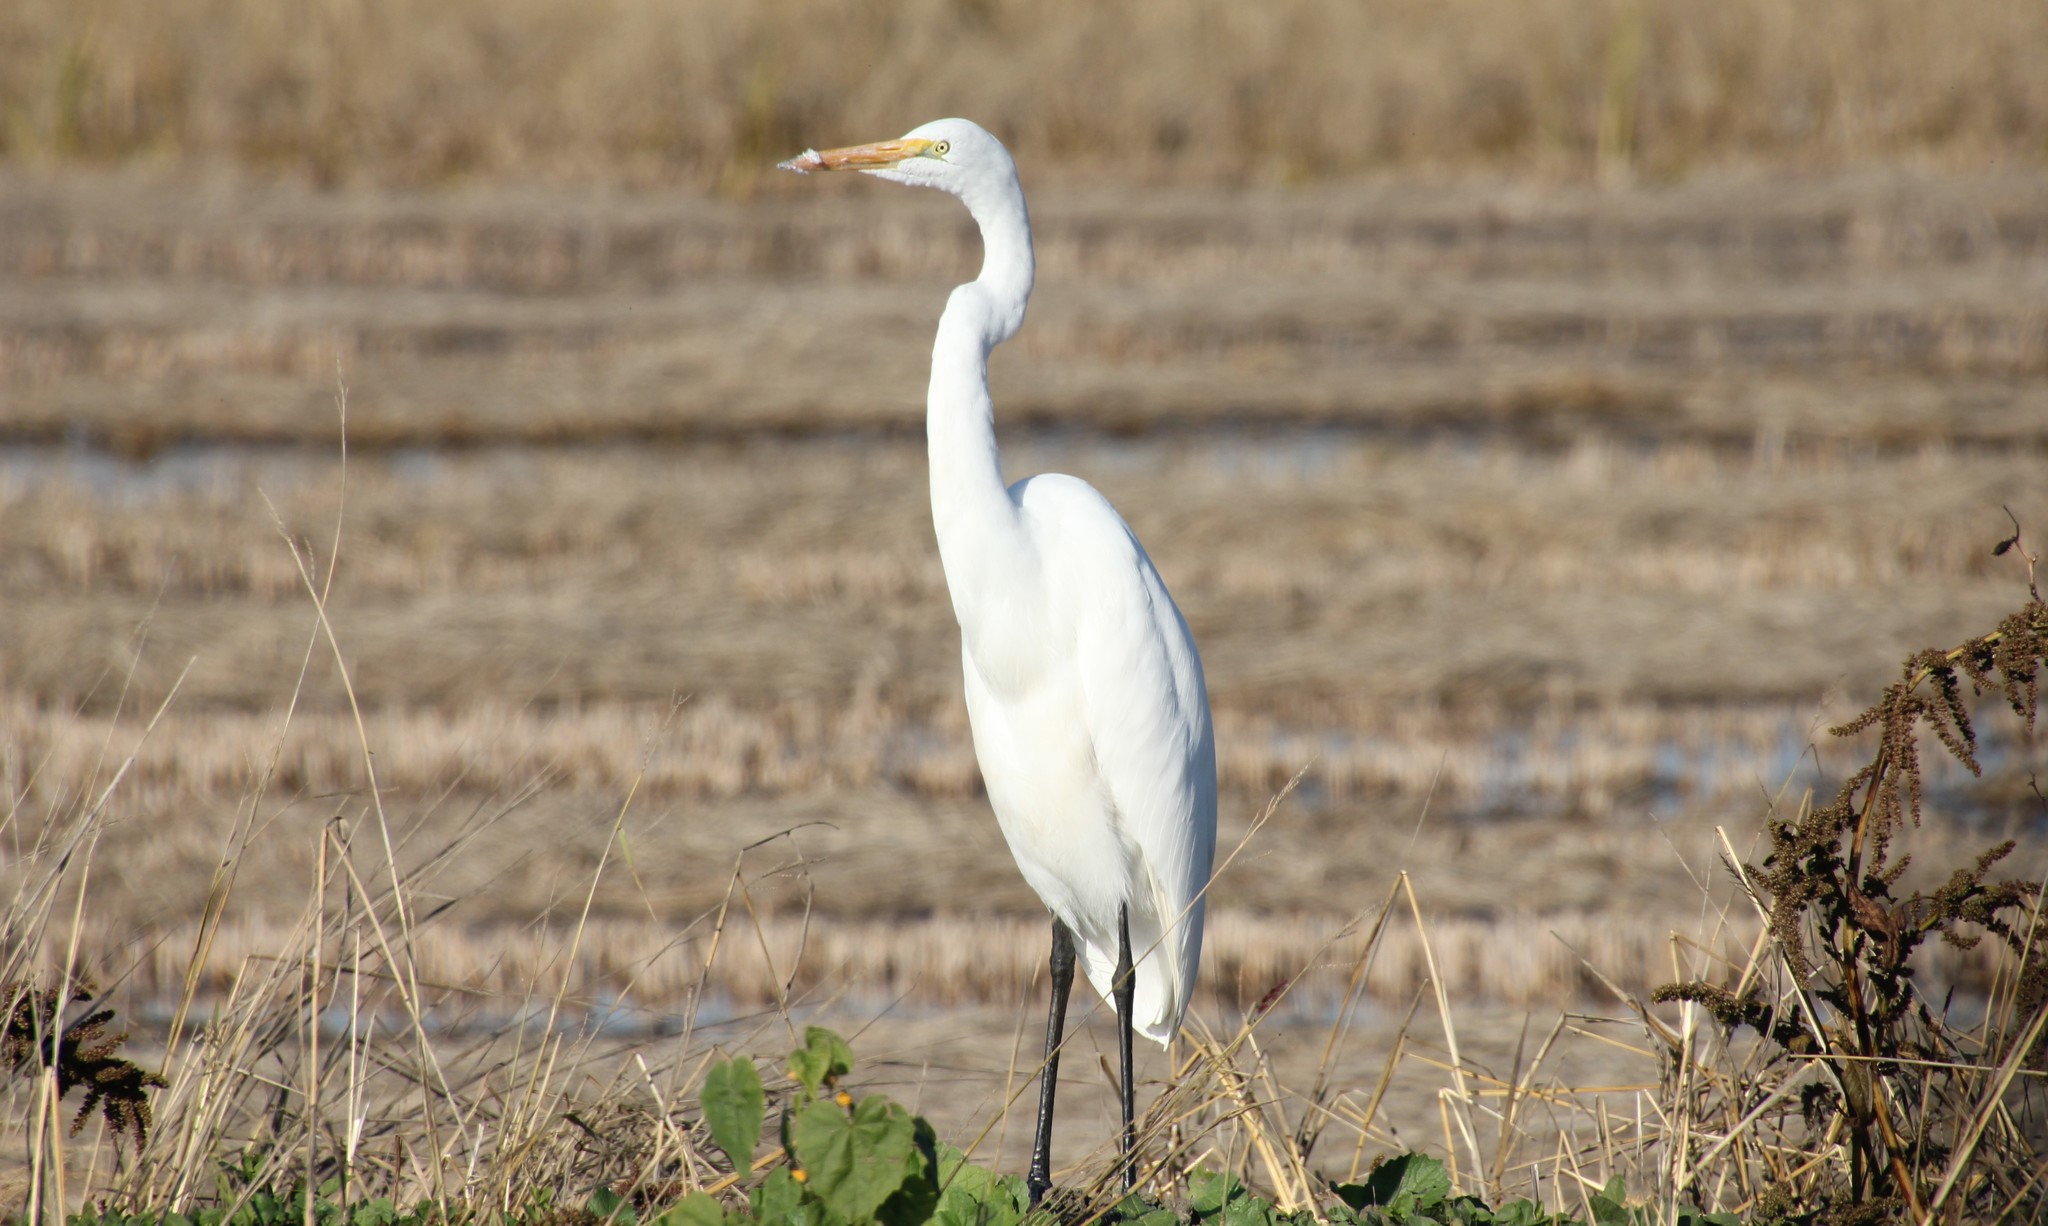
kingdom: Animalia
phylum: Chordata
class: Aves
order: Pelecaniformes
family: Ardeidae
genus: Ardea
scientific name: Ardea alba
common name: Great egret
